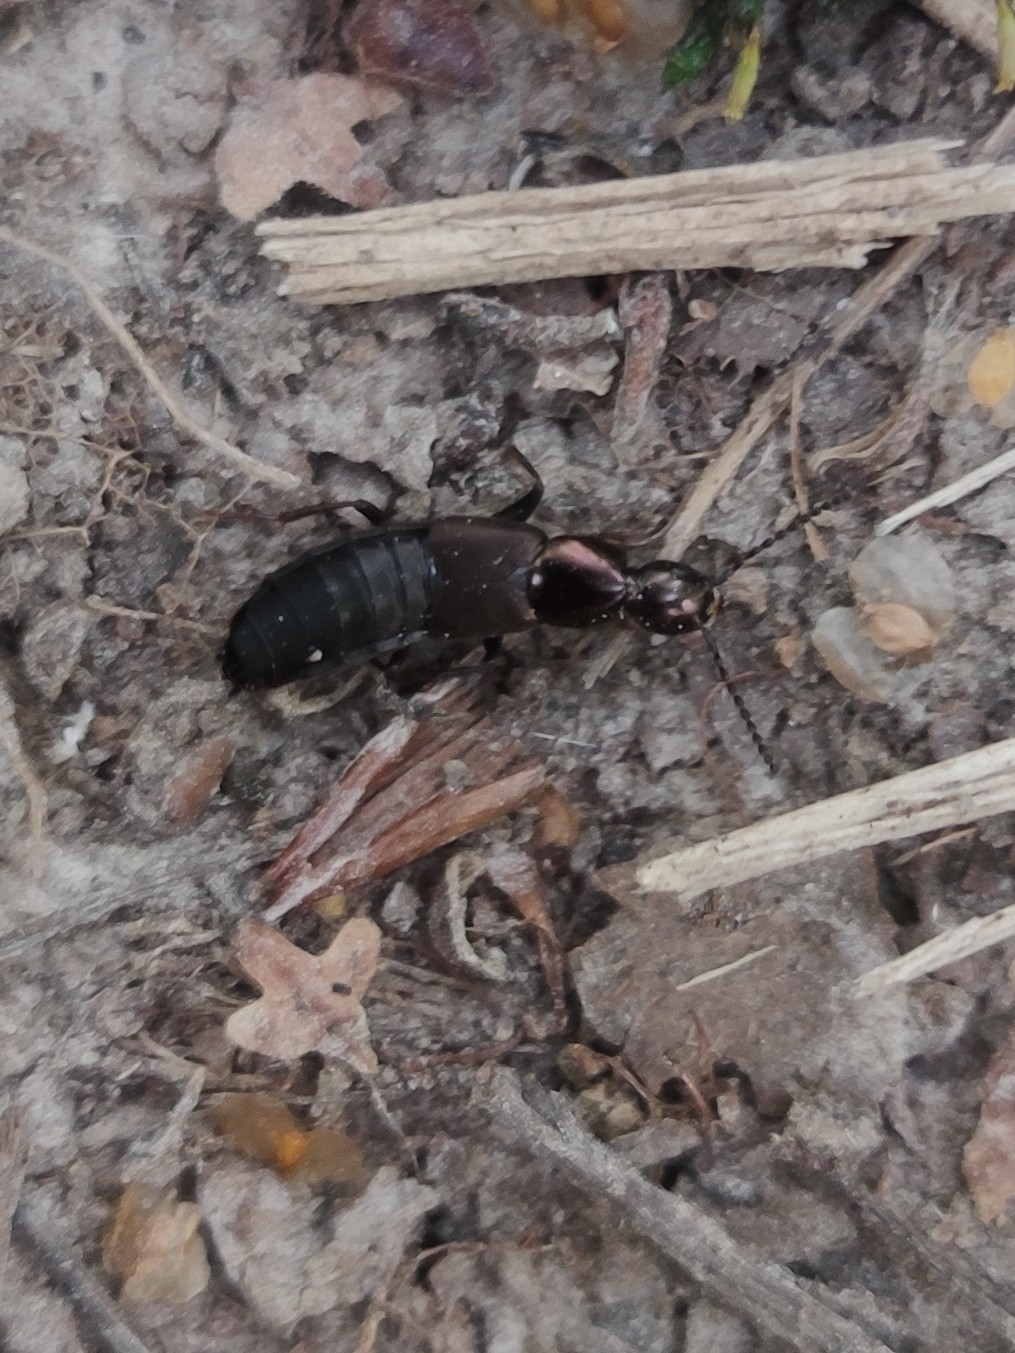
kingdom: Animalia
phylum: Arthropoda
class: Insecta
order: Coleoptera
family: Staphylinidae
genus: Philonthus
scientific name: Philonthus decorus
